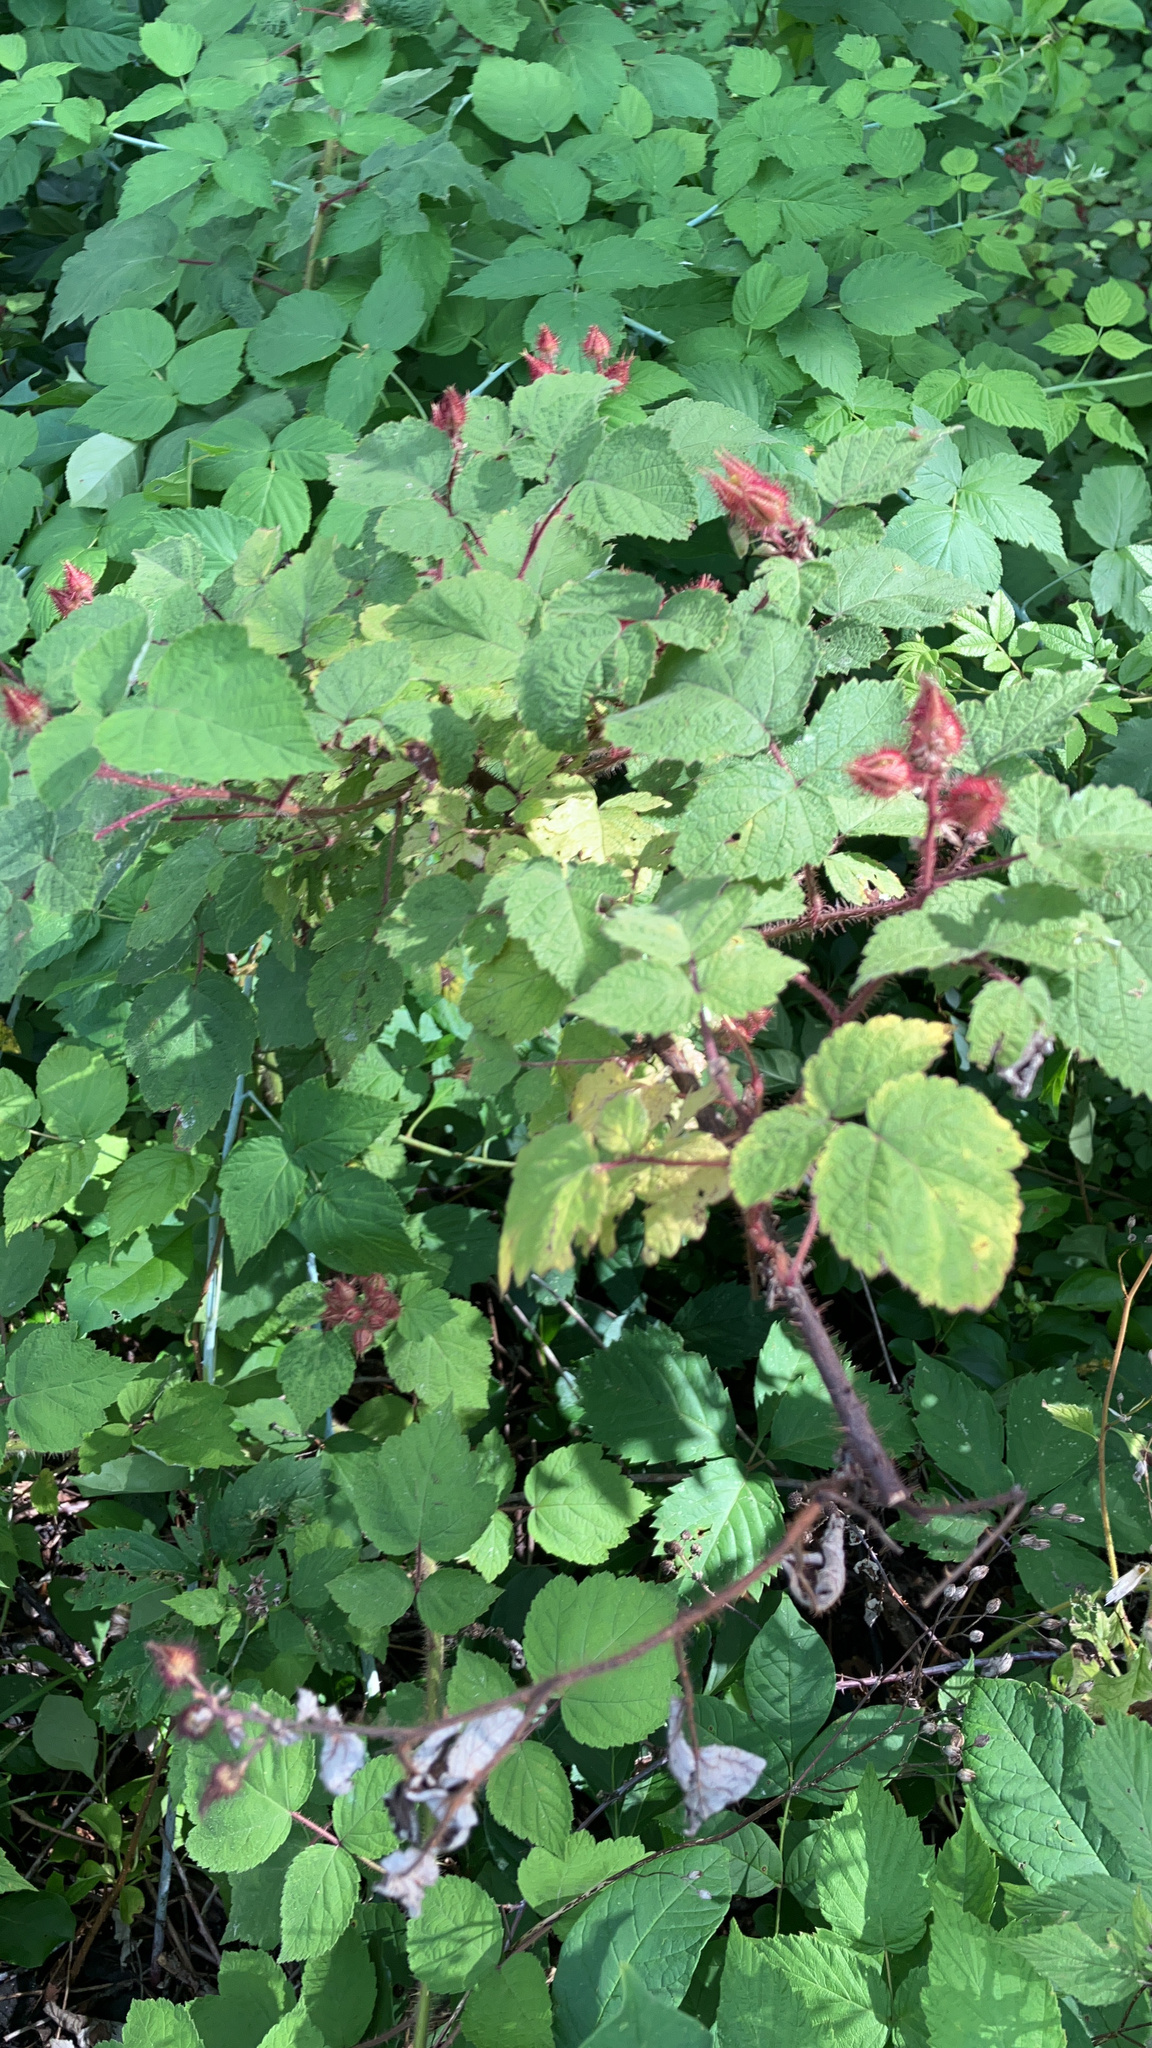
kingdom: Plantae
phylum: Tracheophyta
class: Magnoliopsida
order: Rosales
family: Rosaceae
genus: Rubus
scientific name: Rubus phoenicolasius
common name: Japanese wineberry
